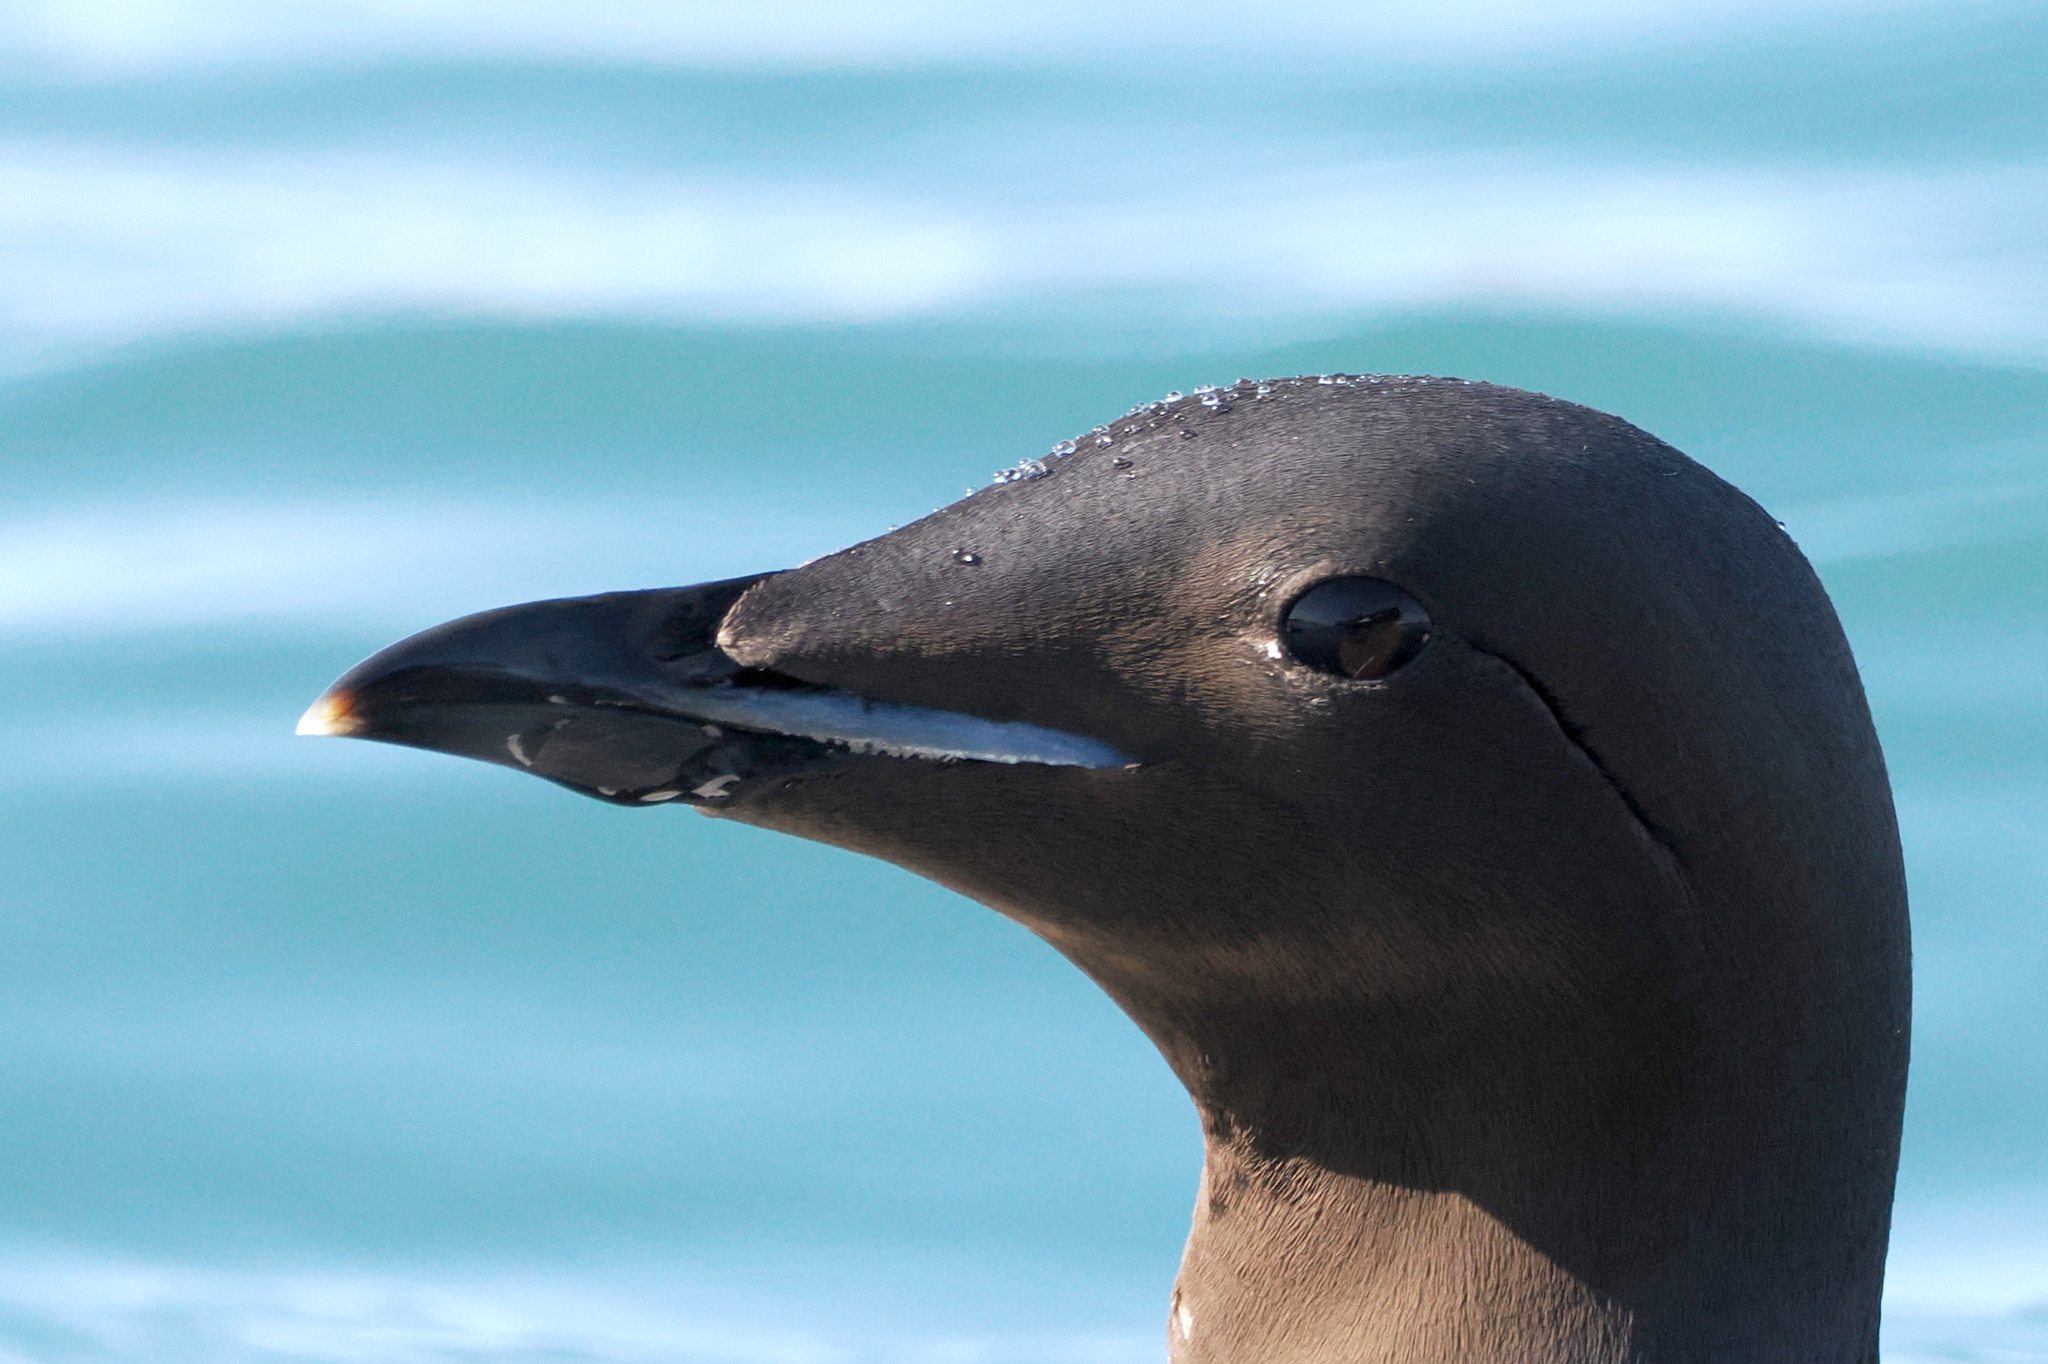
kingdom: Animalia
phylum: Chordata
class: Aves
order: Charadriiformes
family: Alcidae
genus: Uria
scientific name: Uria lomvia
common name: Thick-billed murre
